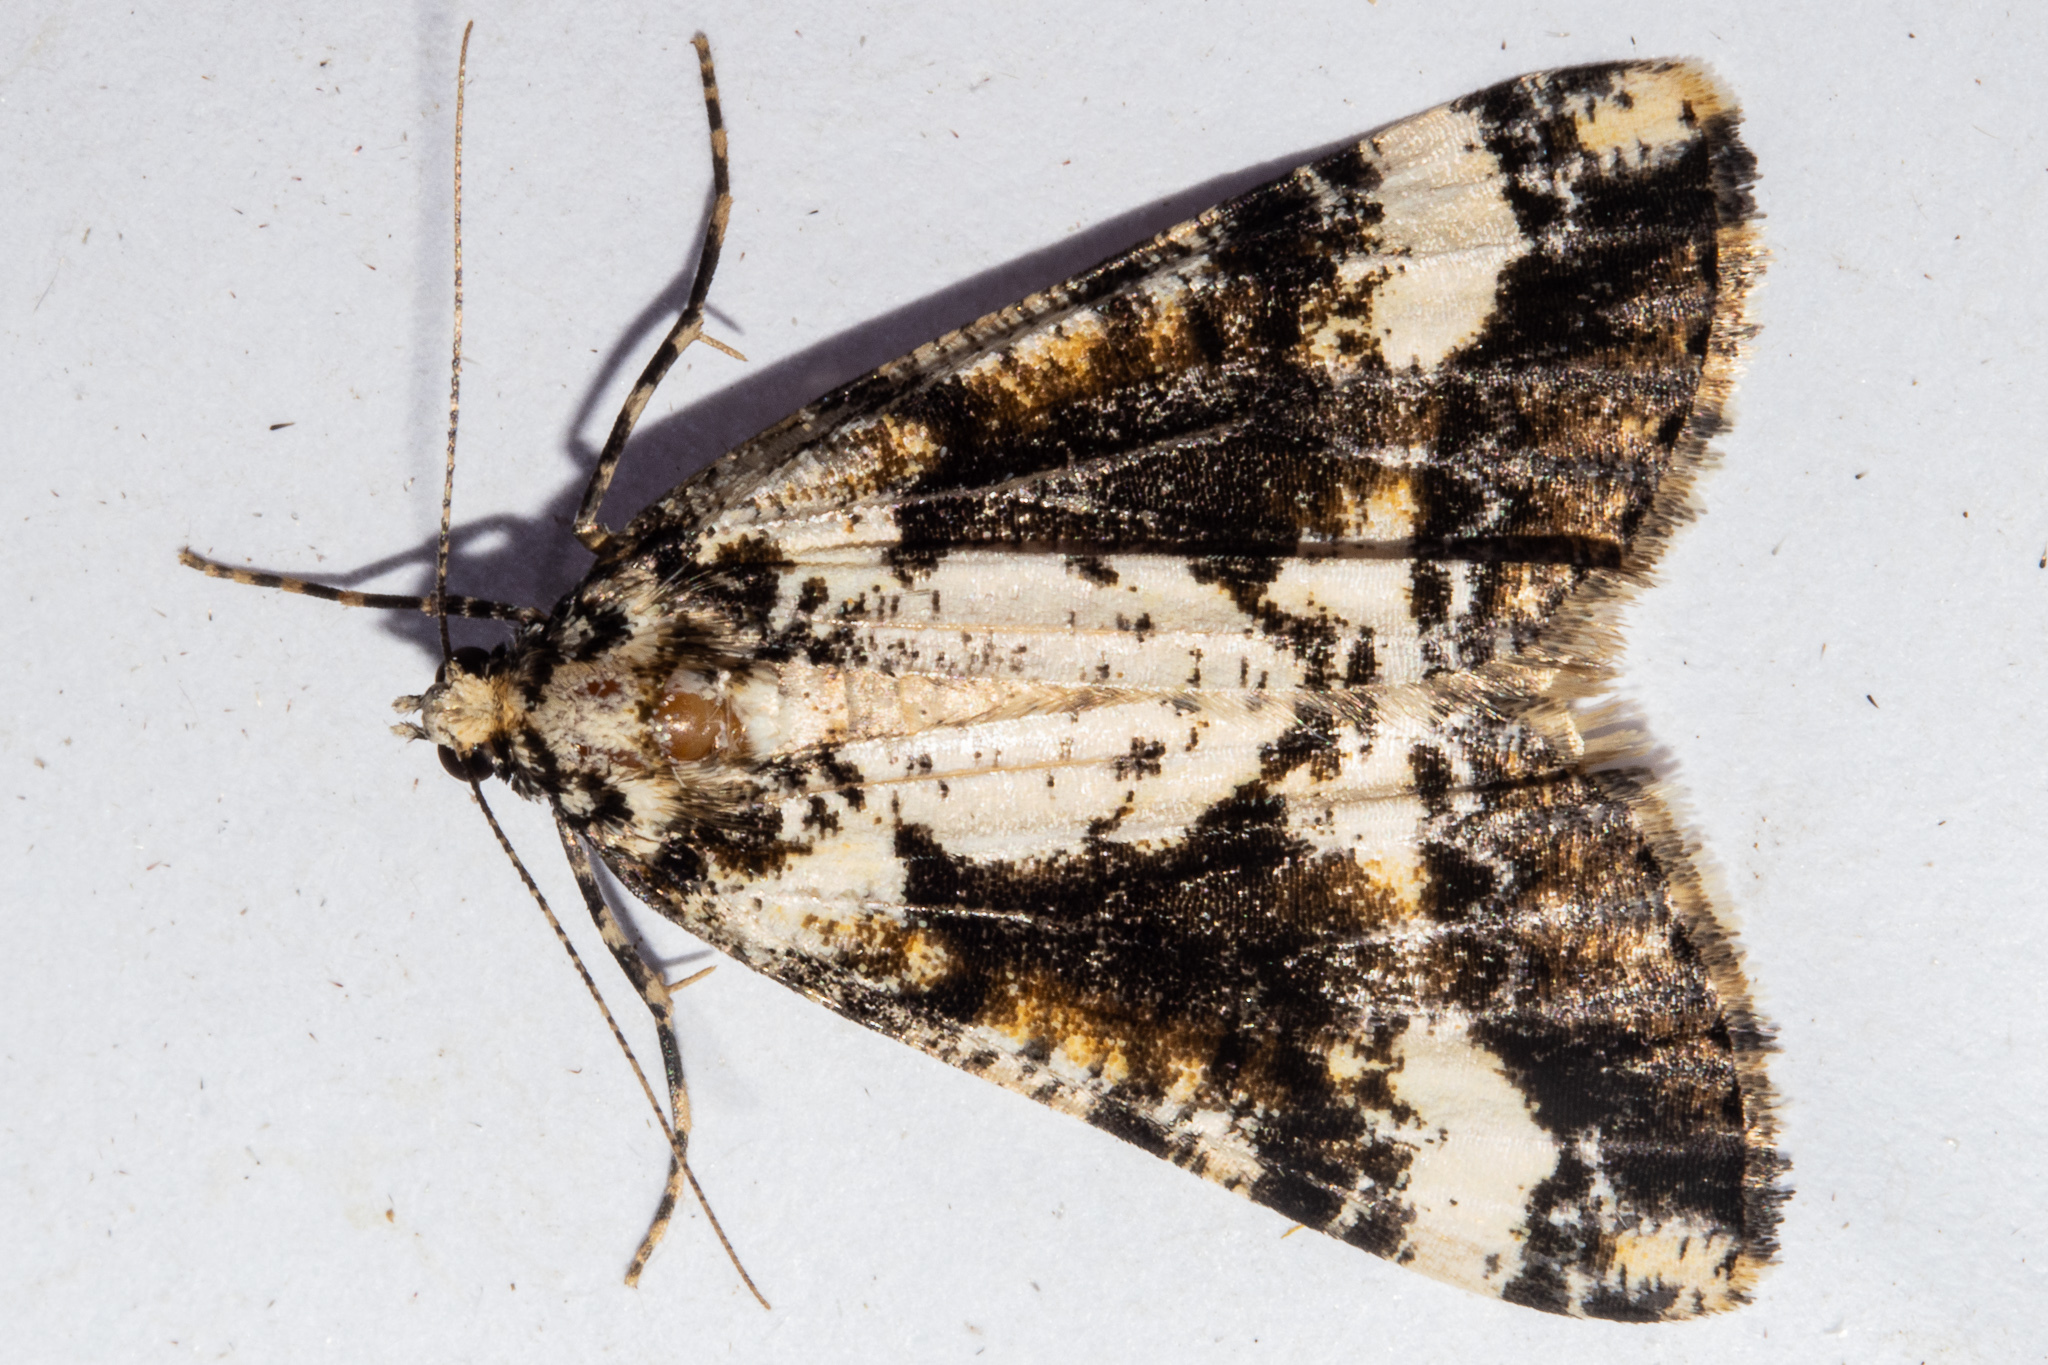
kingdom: Animalia
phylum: Arthropoda
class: Insecta
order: Lepidoptera
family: Geometridae
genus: Pseudocoremia
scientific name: Pseudocoremia leucelaea
